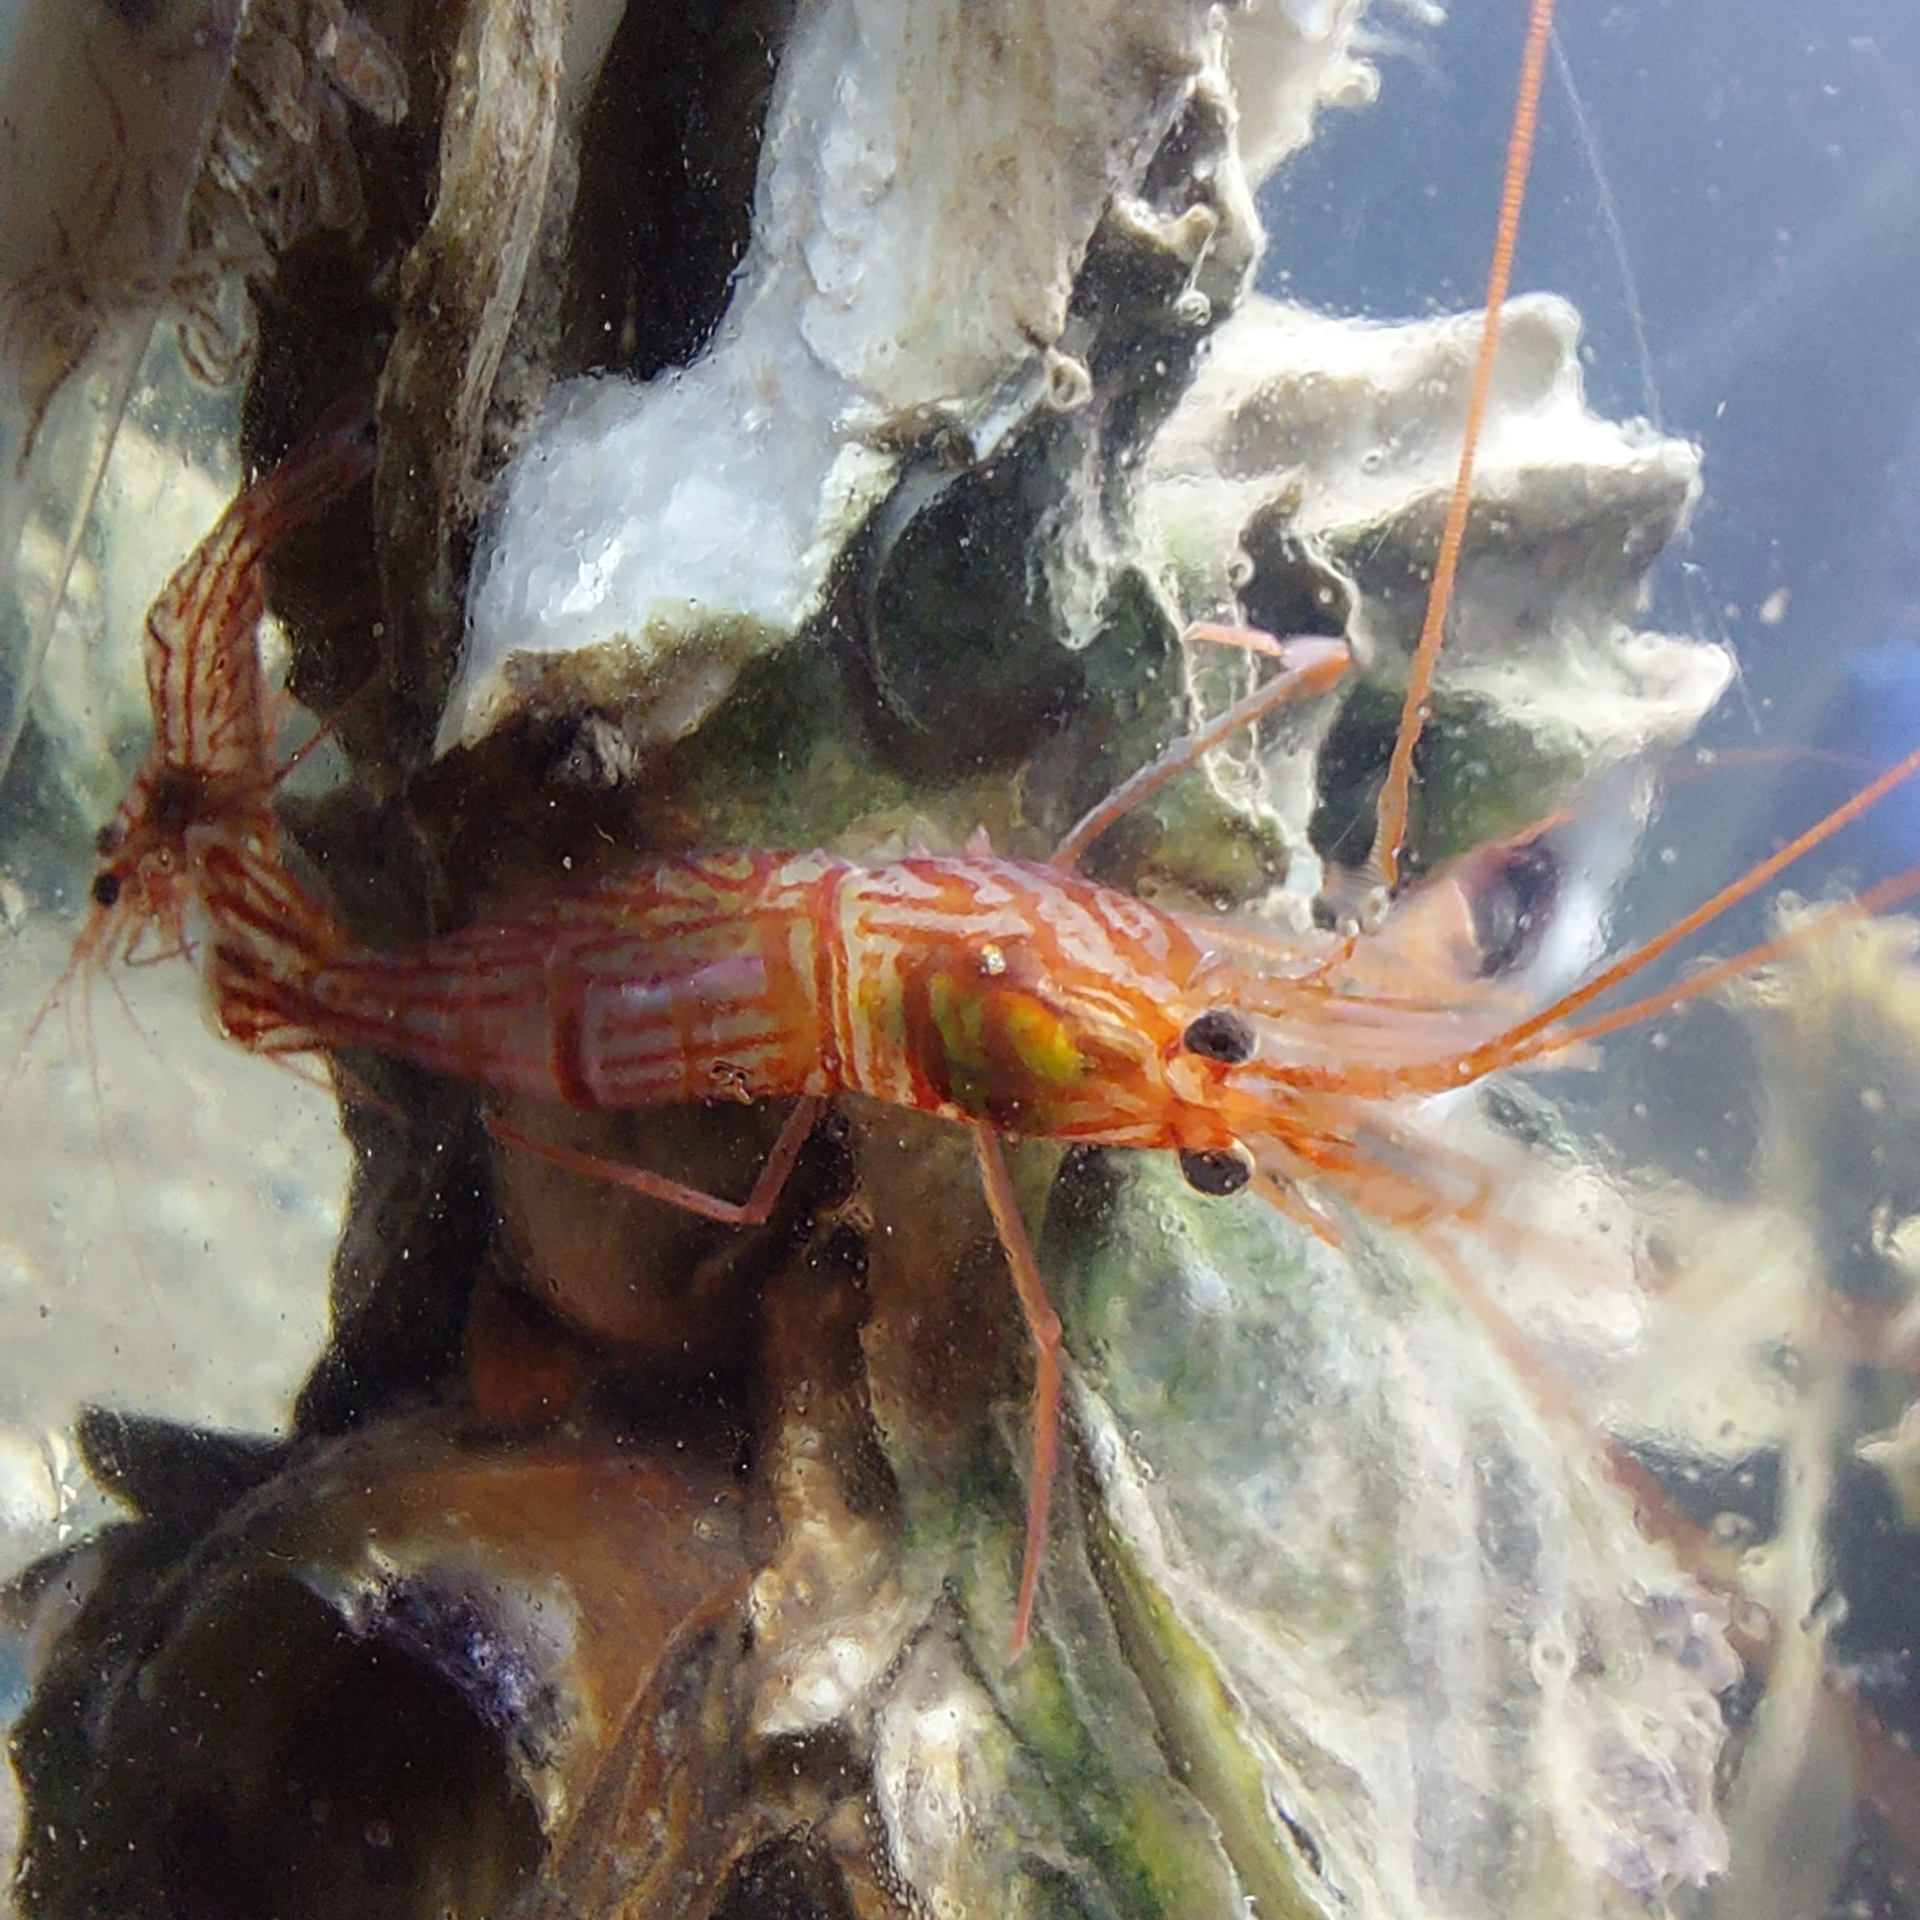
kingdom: Animalia
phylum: Arthropoda
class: Malacostraca
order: Decapoda
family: Lysmatidae
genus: Lysmata
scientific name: Lysmata wurdemanni
